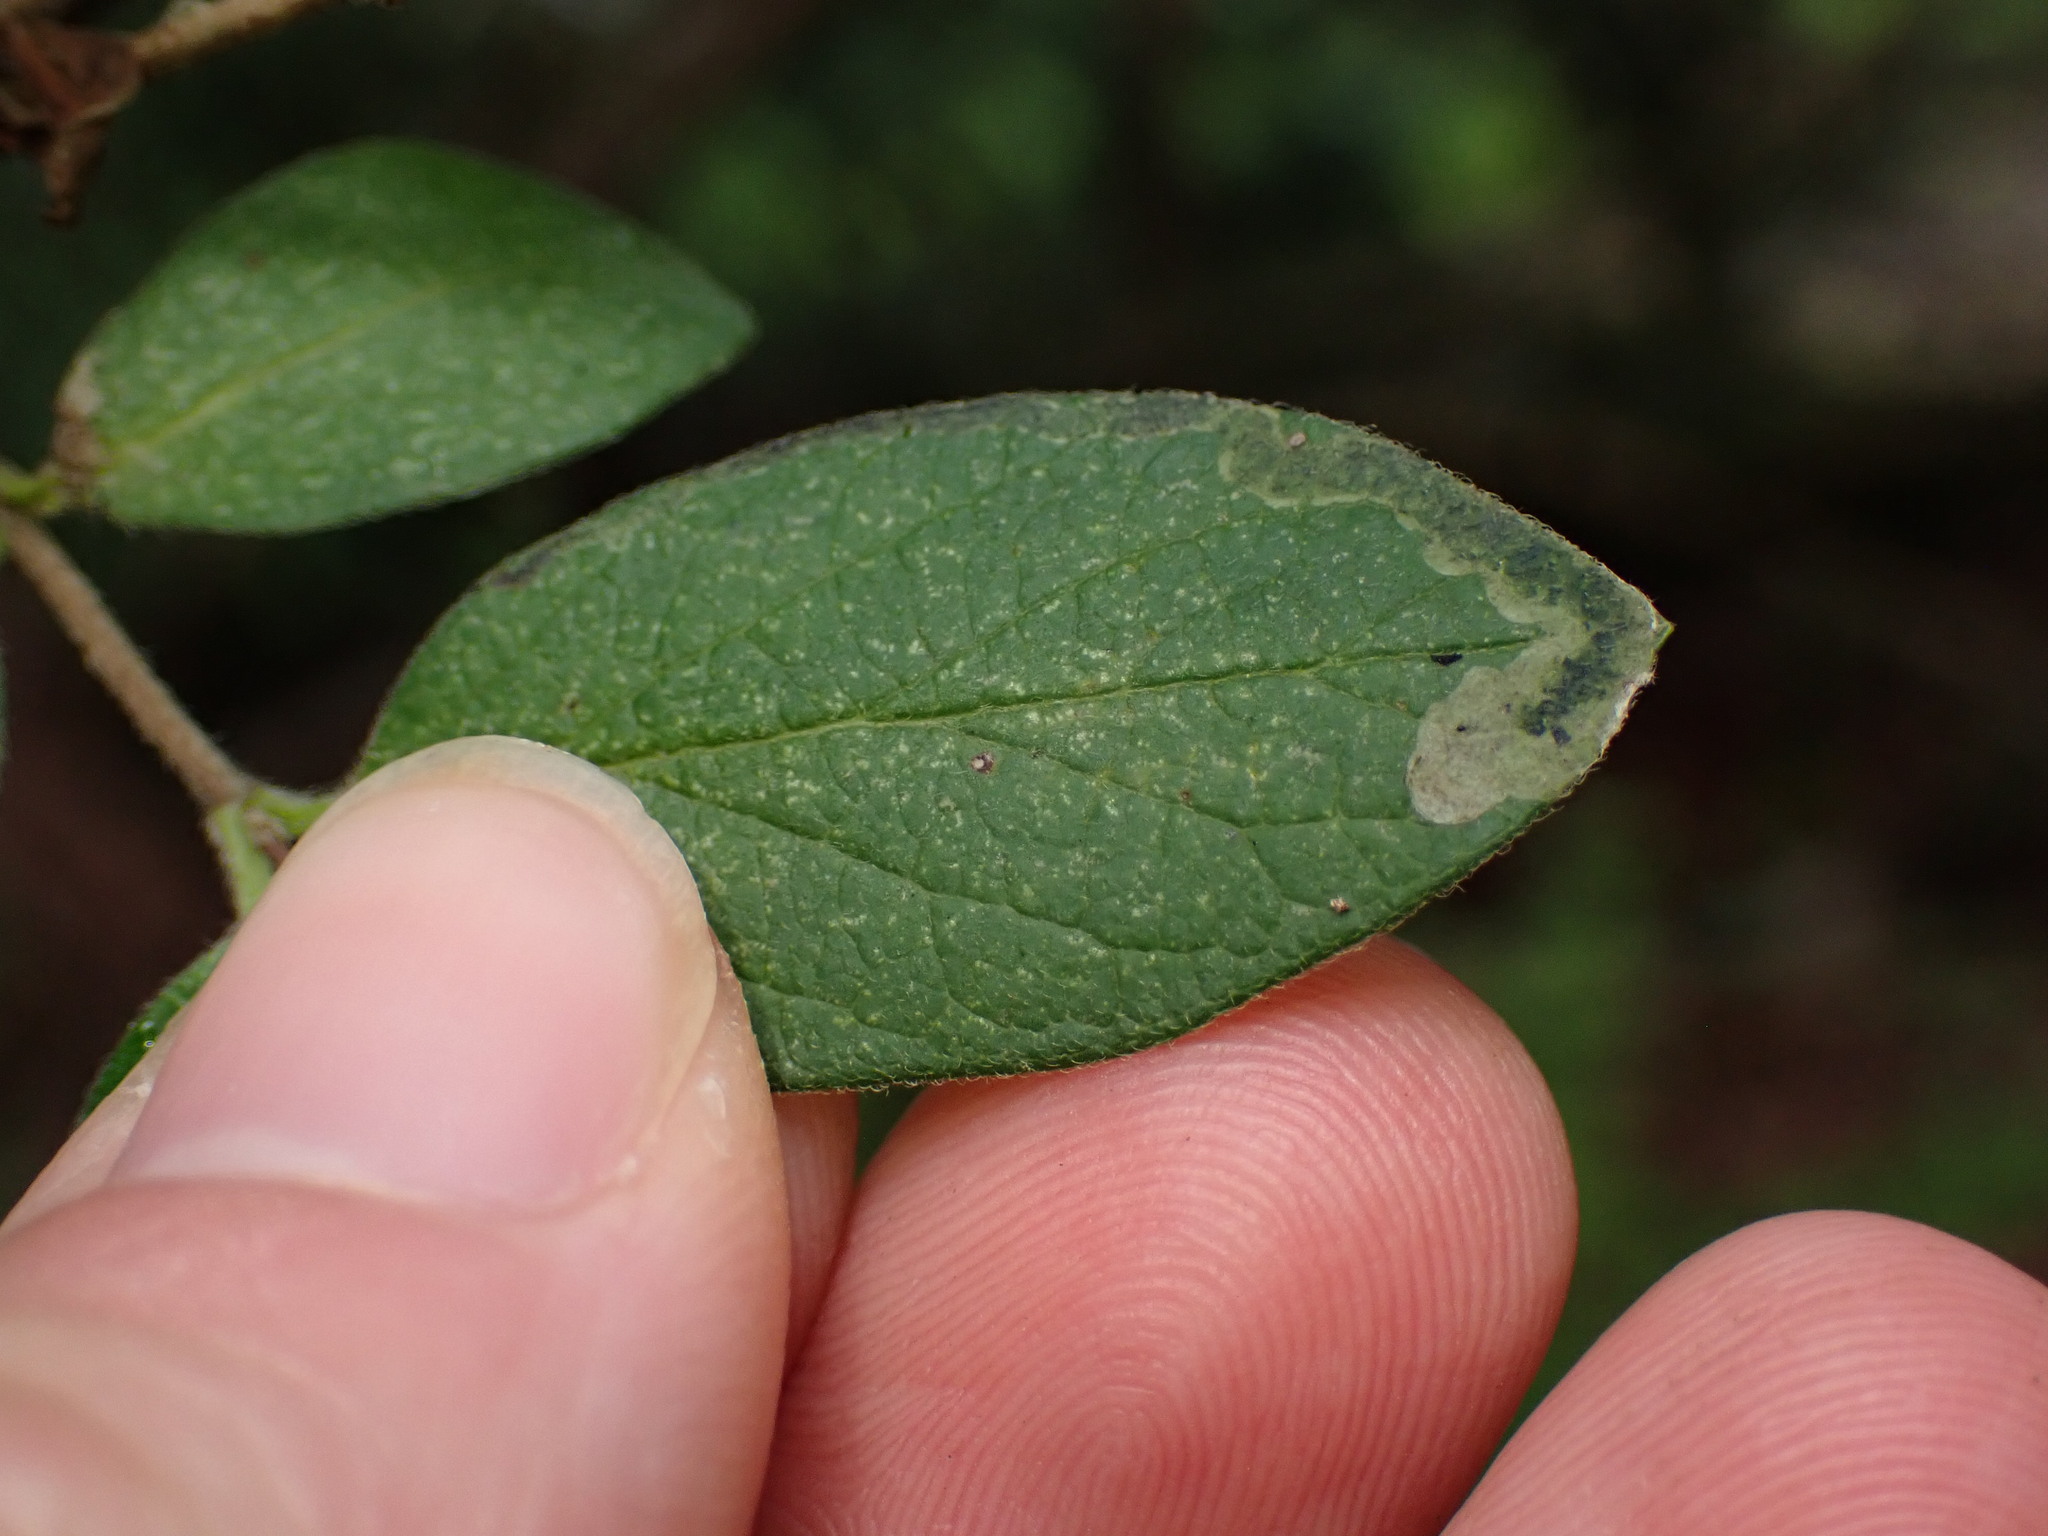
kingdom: Animalia
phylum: Arthropoda
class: Insecta
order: Diptera
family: Agromyzidae
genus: Aulagromyza
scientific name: Aulagromyza
